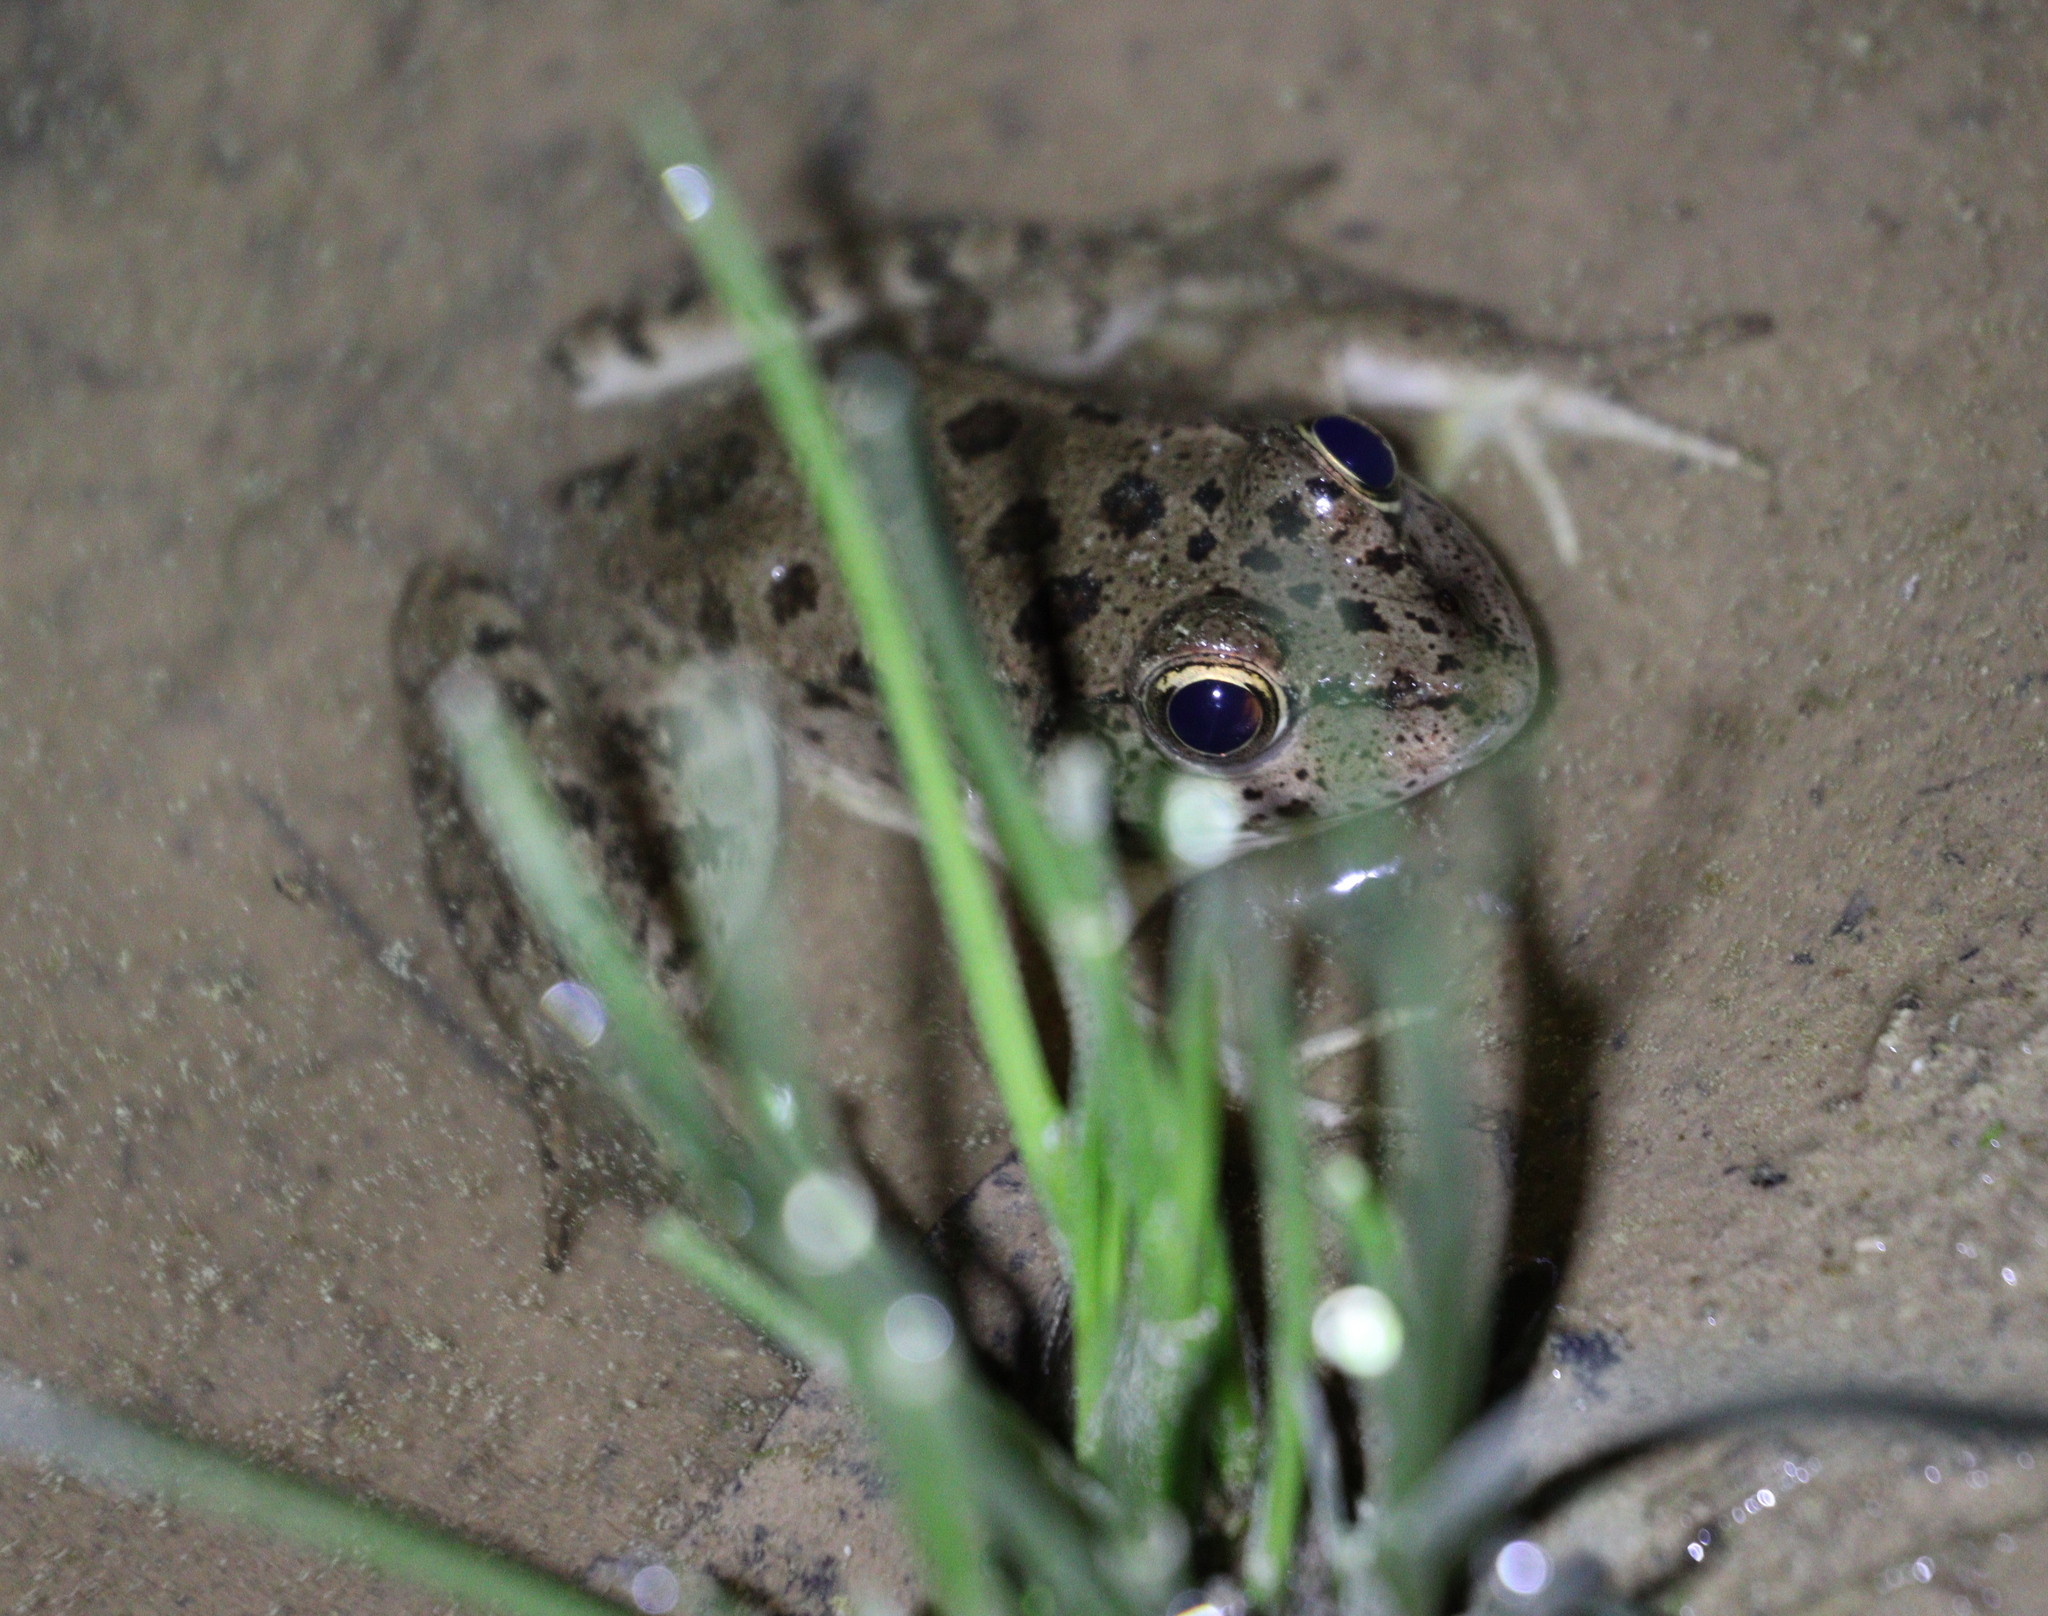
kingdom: Animalia
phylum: Chordata
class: Amphibia
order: Anura
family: Ranidae
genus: Pelophylax
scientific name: Pelophylax ridibundus
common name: Marsh frog
